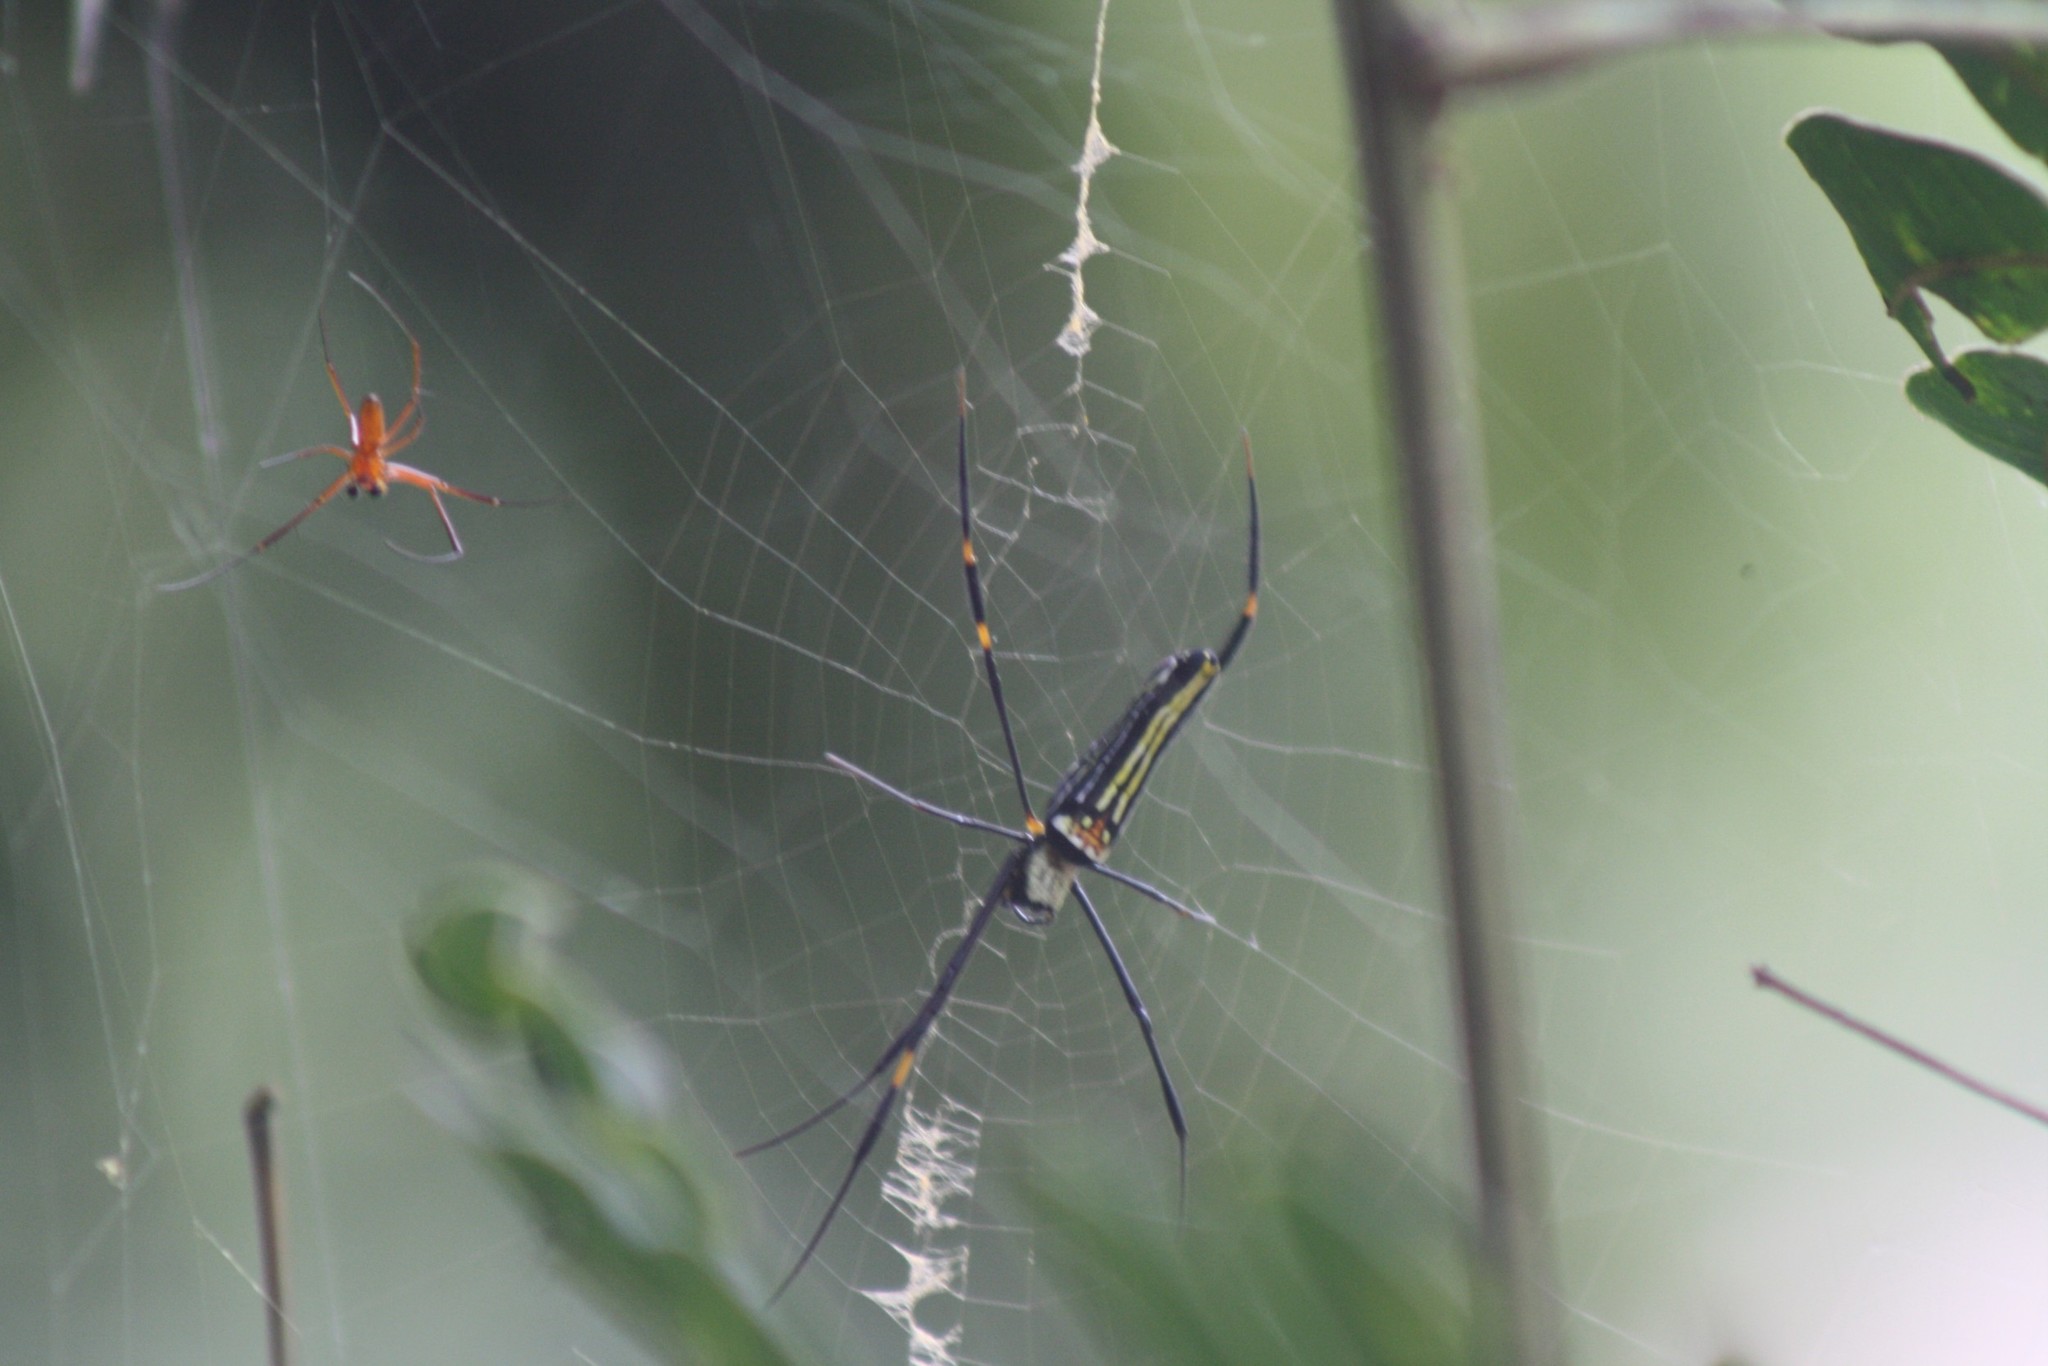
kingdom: Animalia
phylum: Arthropoda
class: Arachnida
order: Araneae
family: Araneidae
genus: Nephila
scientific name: Nephila pilipes
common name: Giant golden orb weaver
